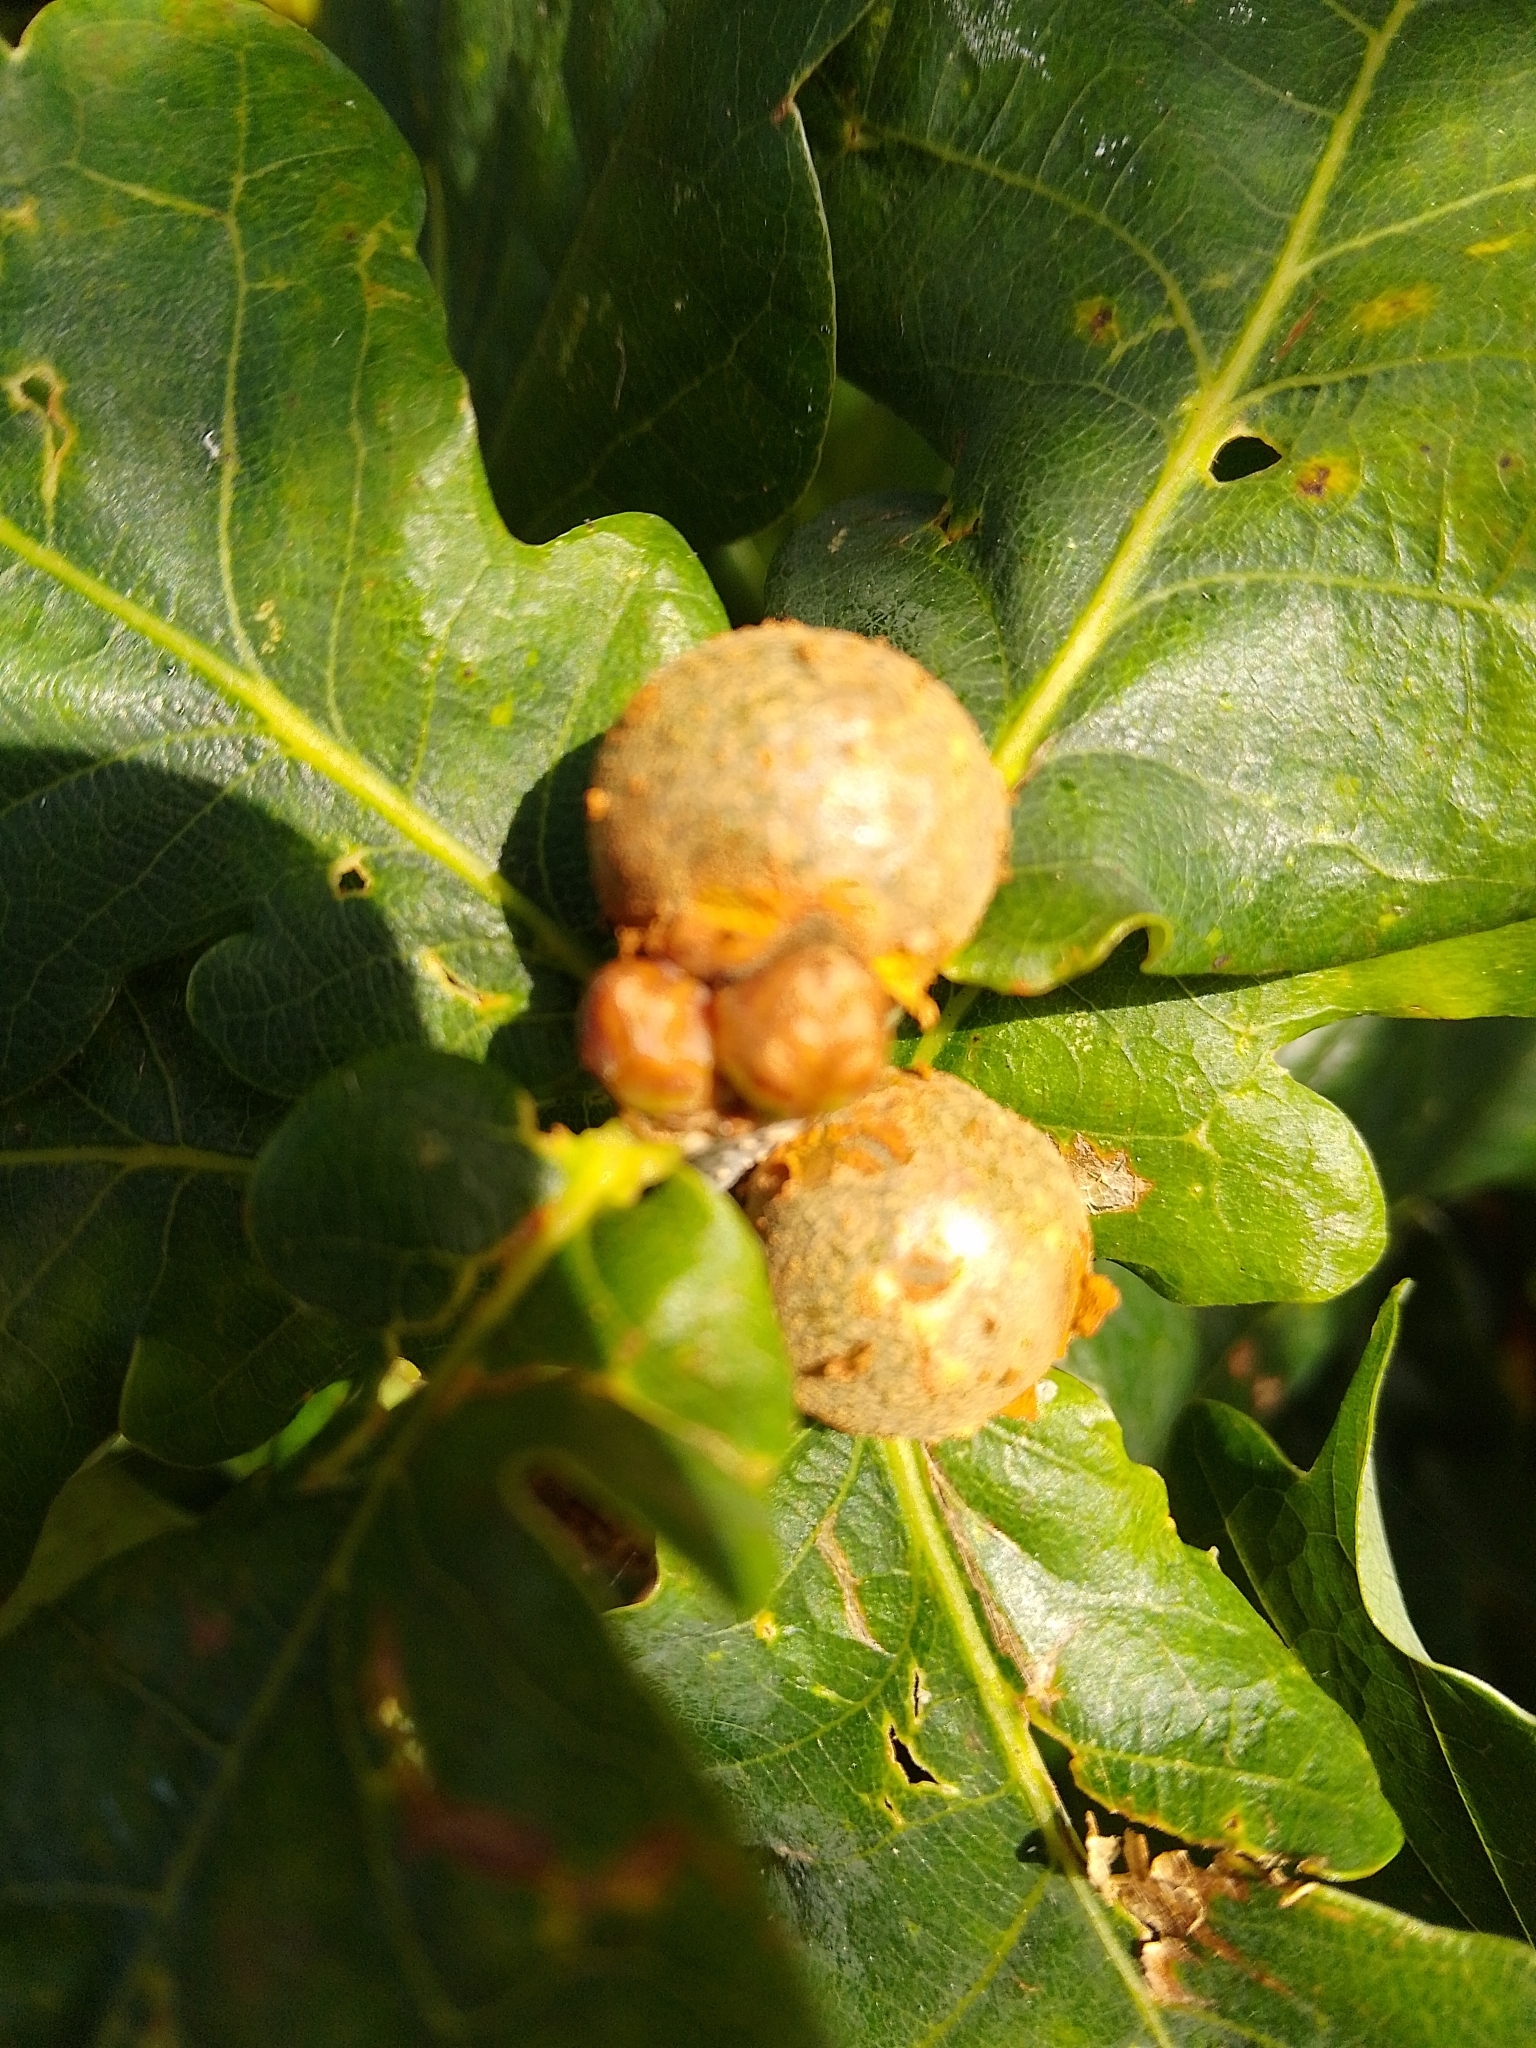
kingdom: Animalia
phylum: Arthropoda
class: Insecta
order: Hymenoptera
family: Cynipidae
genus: Andricus
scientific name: Andricus lignicolus
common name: Cola-nut gall
